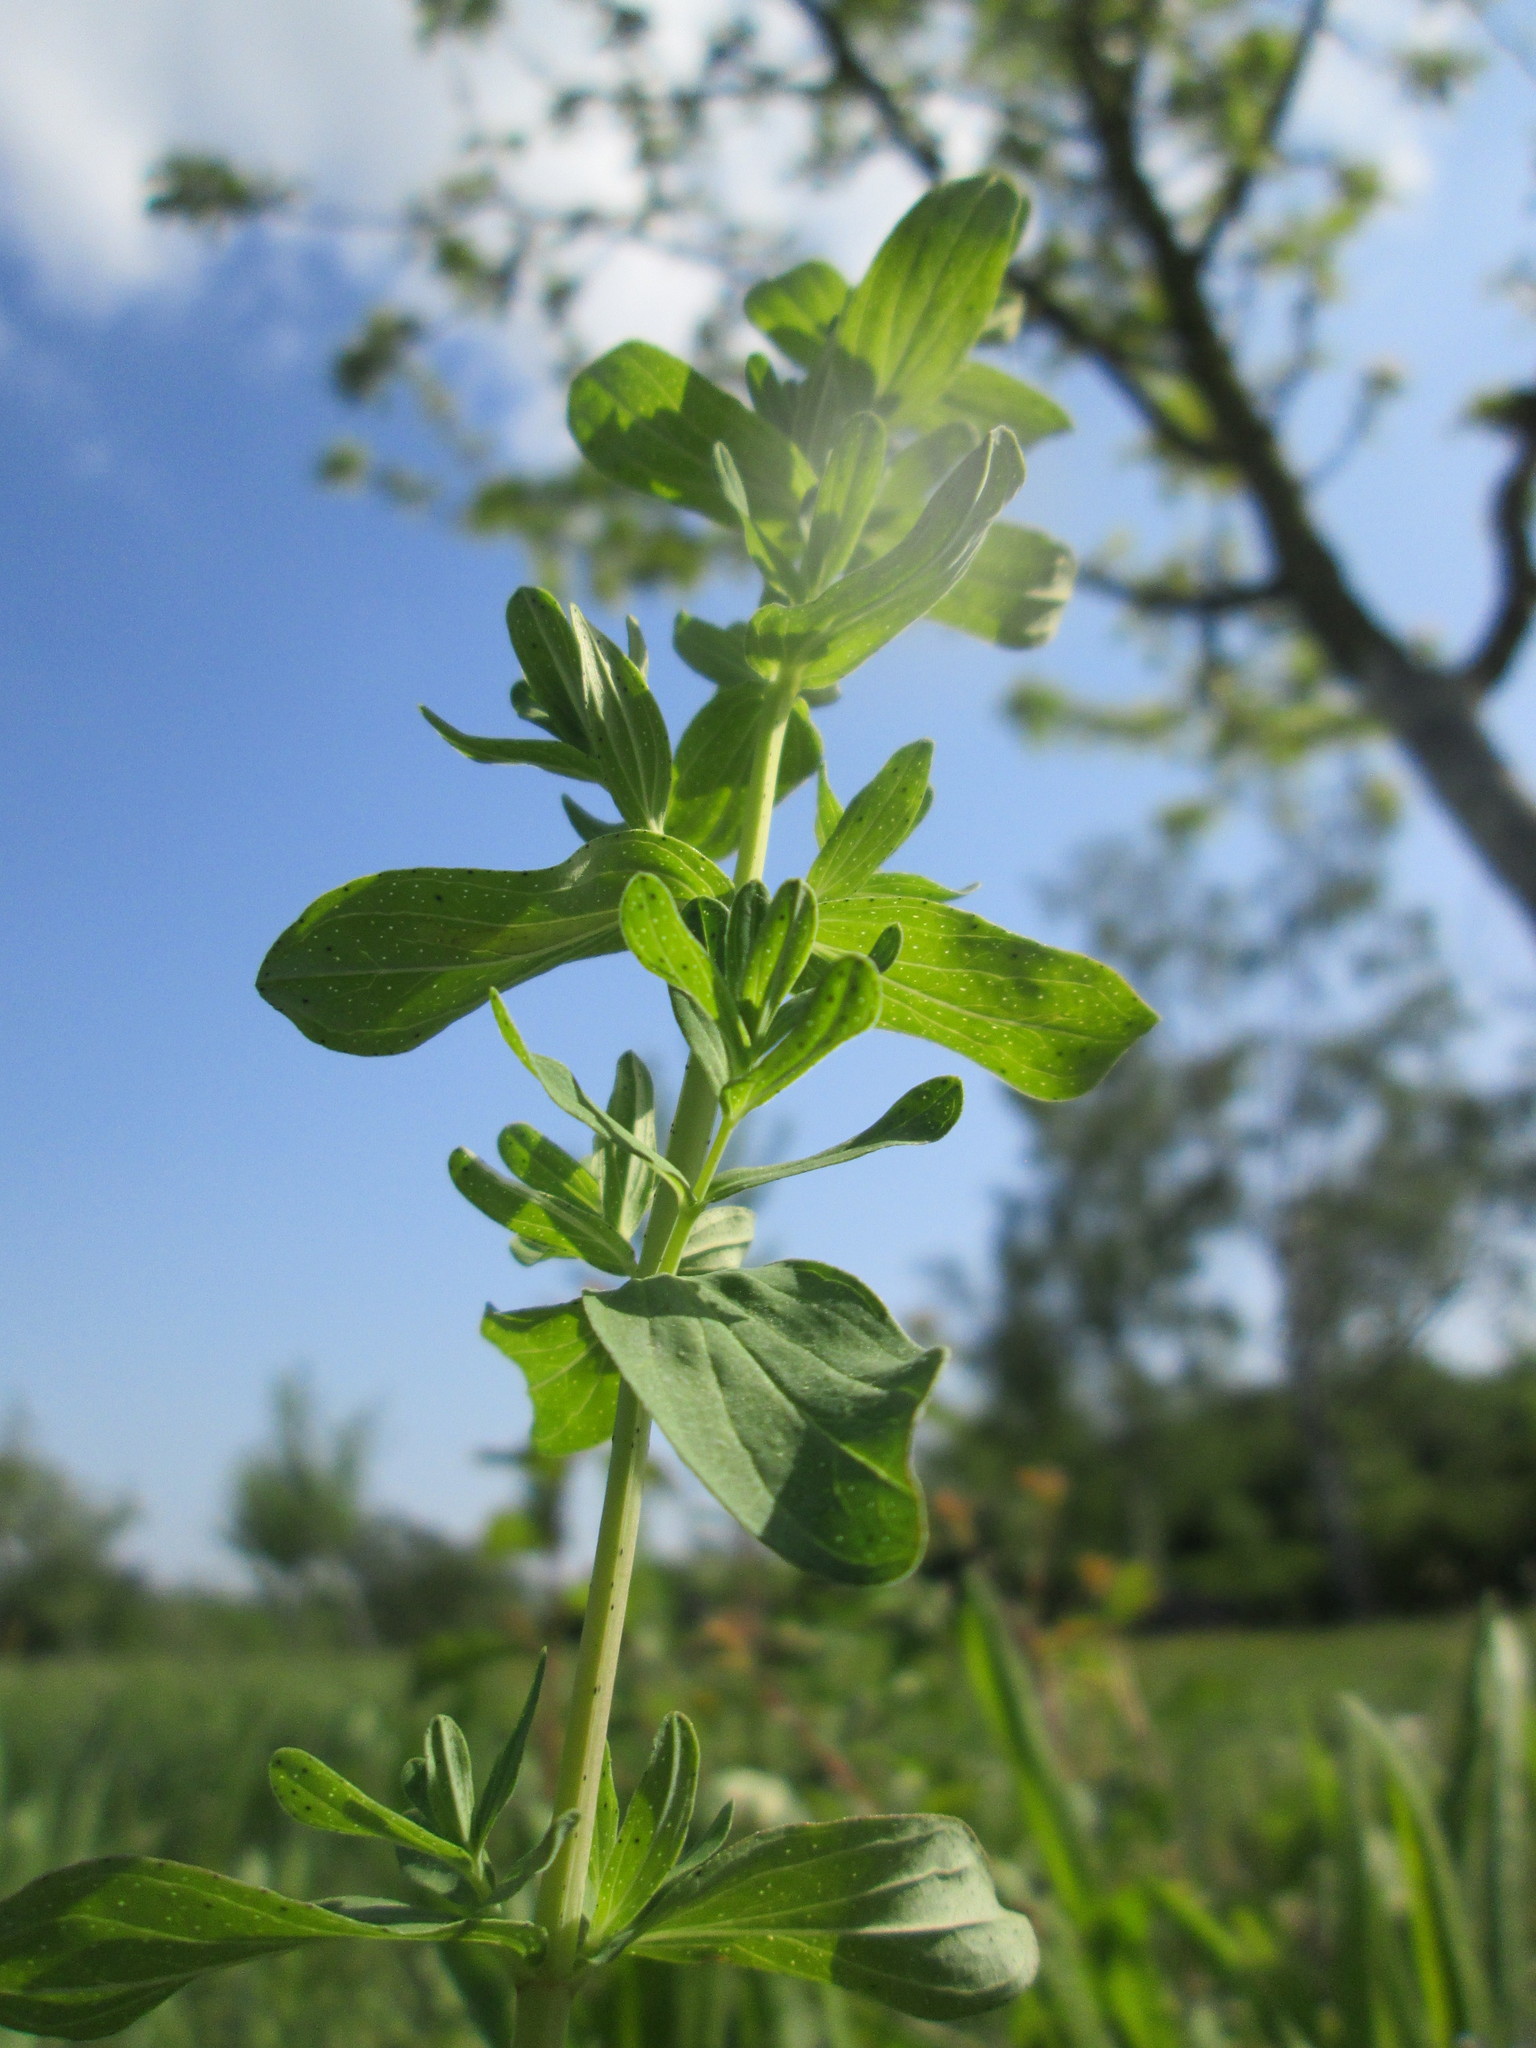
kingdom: Plantae
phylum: Tracheophyta
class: Magnoliopsida
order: Malpighiales
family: Hypericaceae
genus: Hypericum
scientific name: Hypericum perforatum
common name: Common st. johnswort
